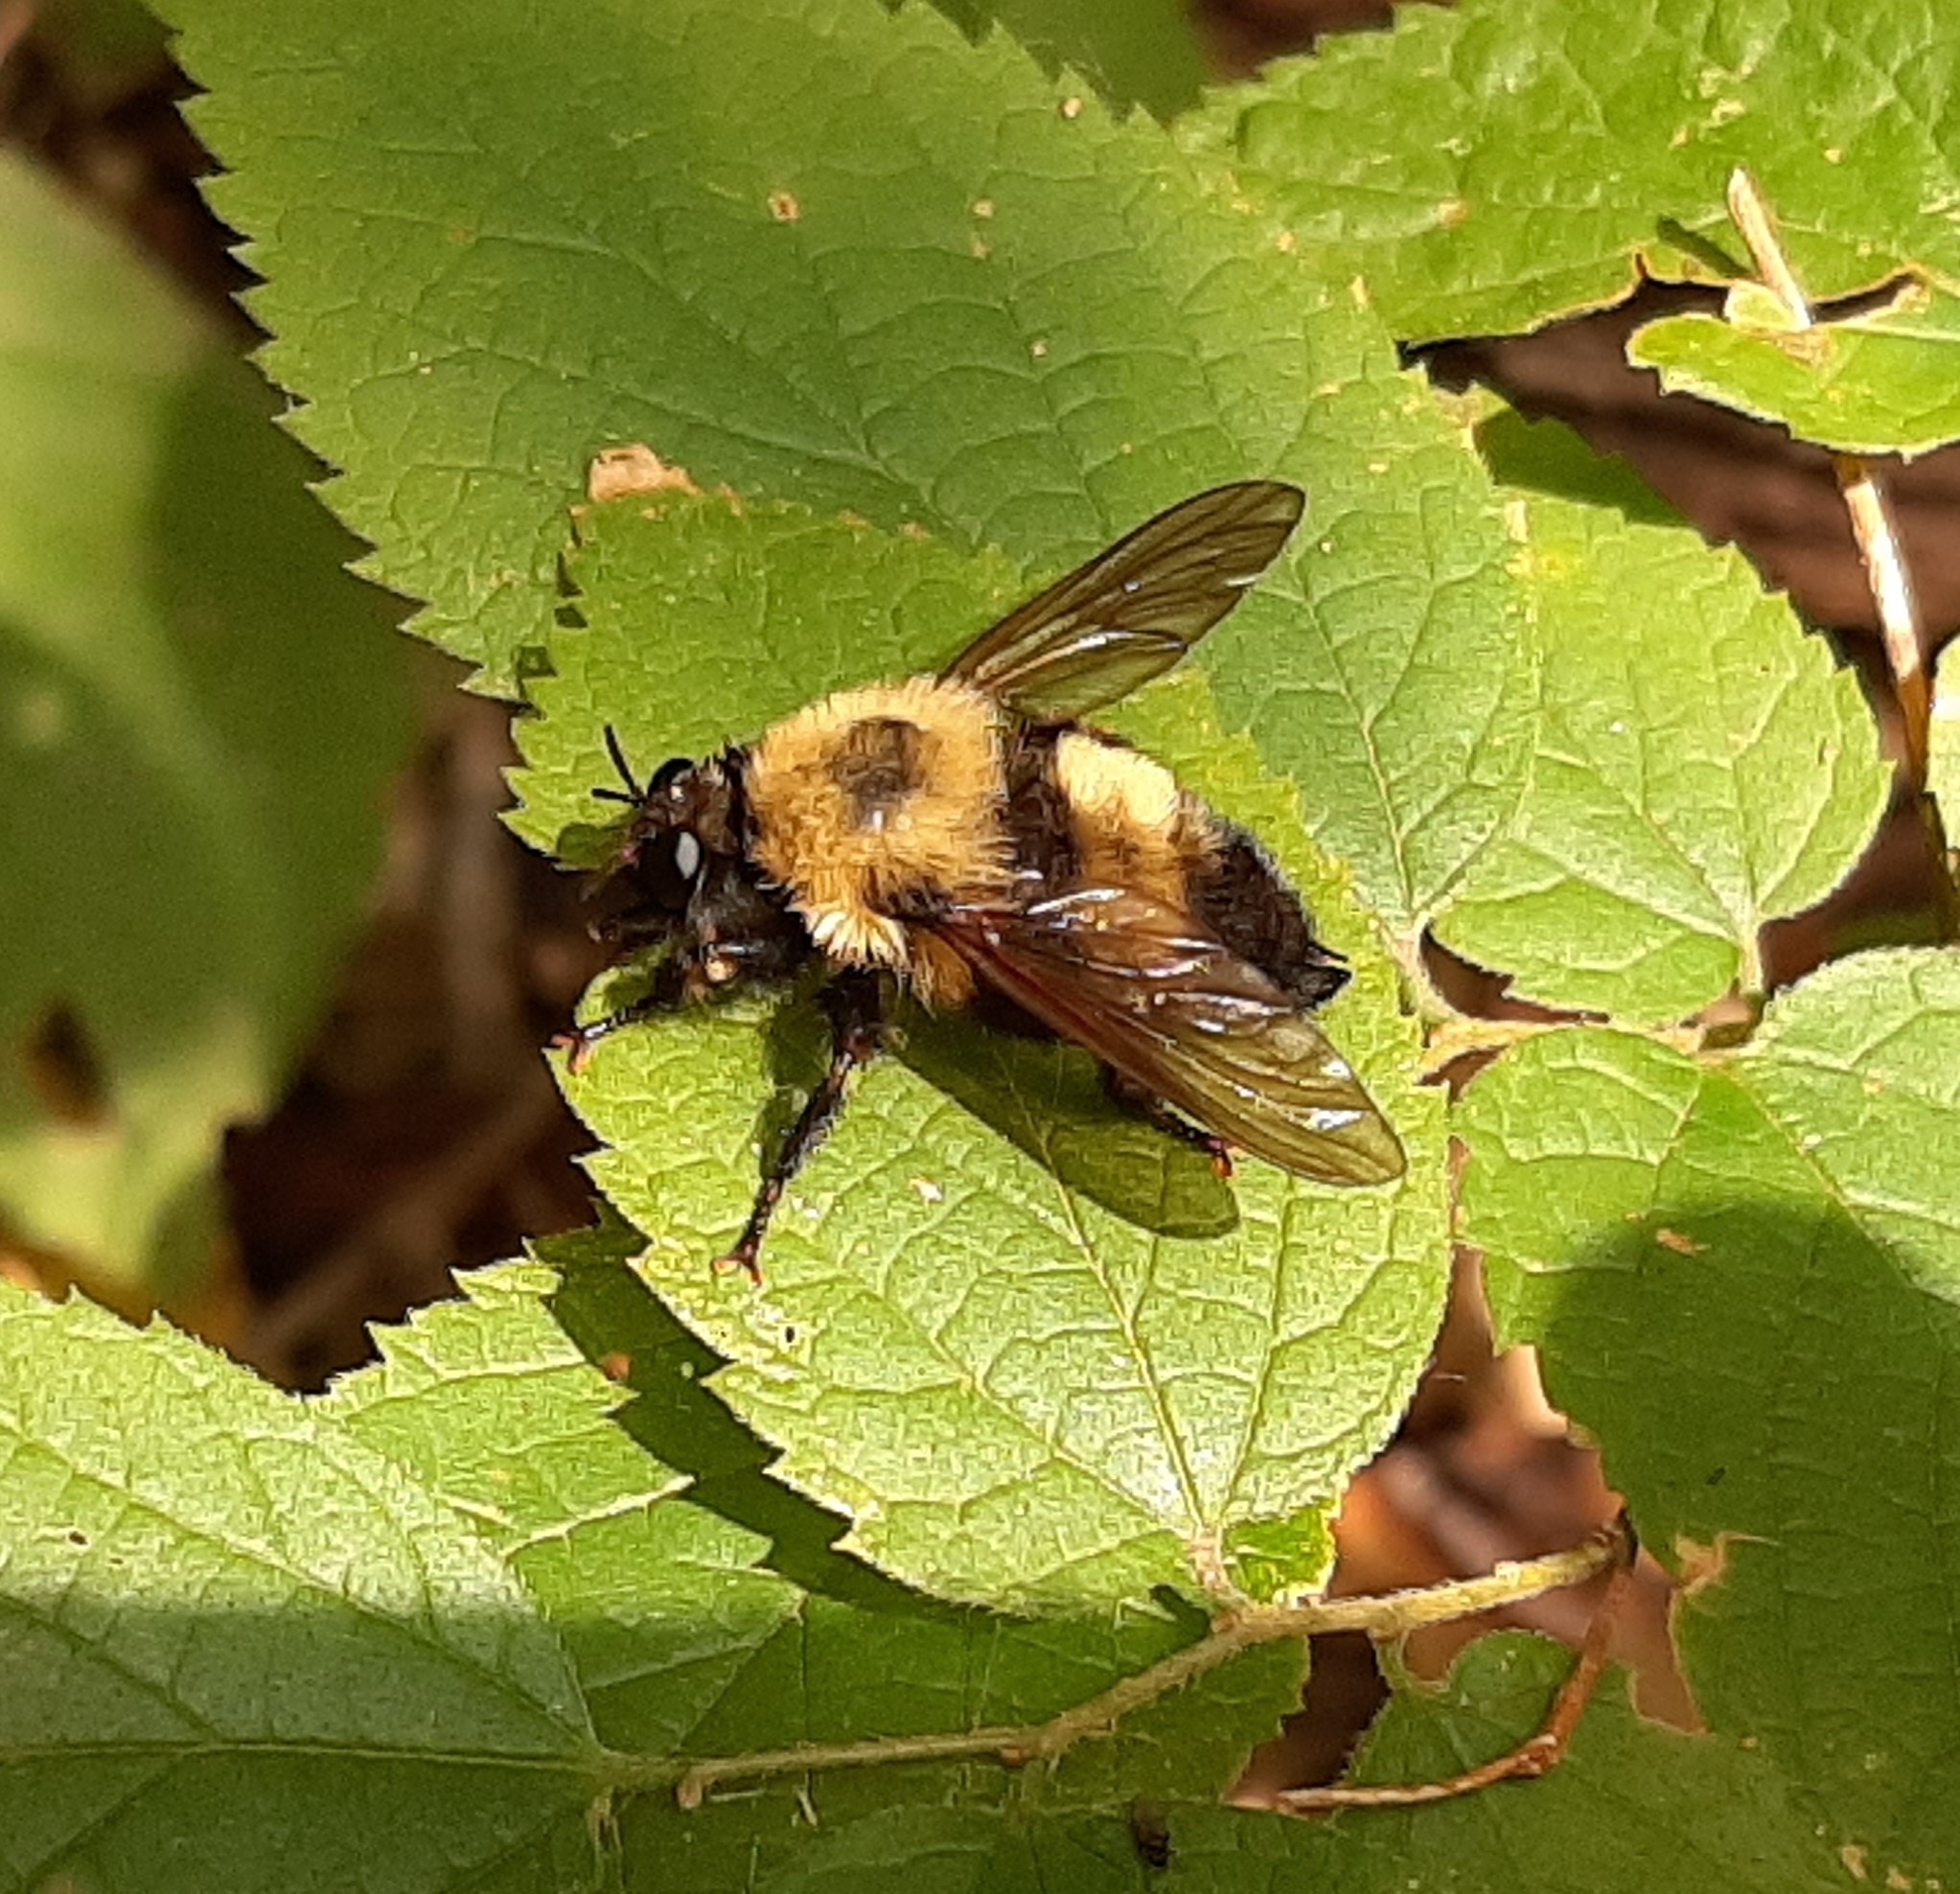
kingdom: Animalia
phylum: Arthropoda
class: Insecta
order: Diptera
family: Asilidae
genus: Laphria
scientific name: Laphria thoracica
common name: Bumble bee mimic robber fly
